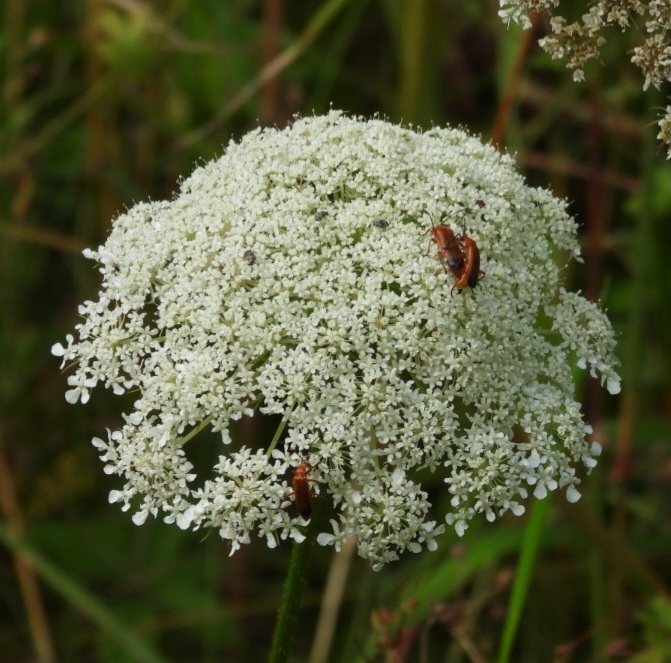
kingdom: Animalia
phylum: Arthropoda
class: Insecta
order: Coleoptera
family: Cantharidae
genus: Rhagonycha
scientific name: Rhagonycha fulva
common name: Common red soldier beetle
